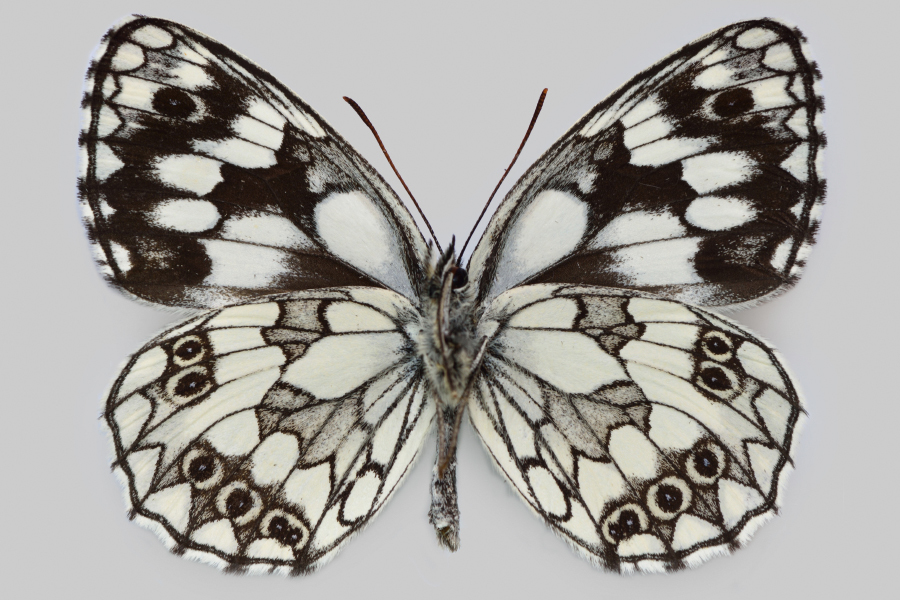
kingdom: Animalia
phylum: Arthropoda
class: Insecta
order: Lepidoptera
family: Nymphalidae
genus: Melanargia
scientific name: Melanargia galathea
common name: Marbled white
